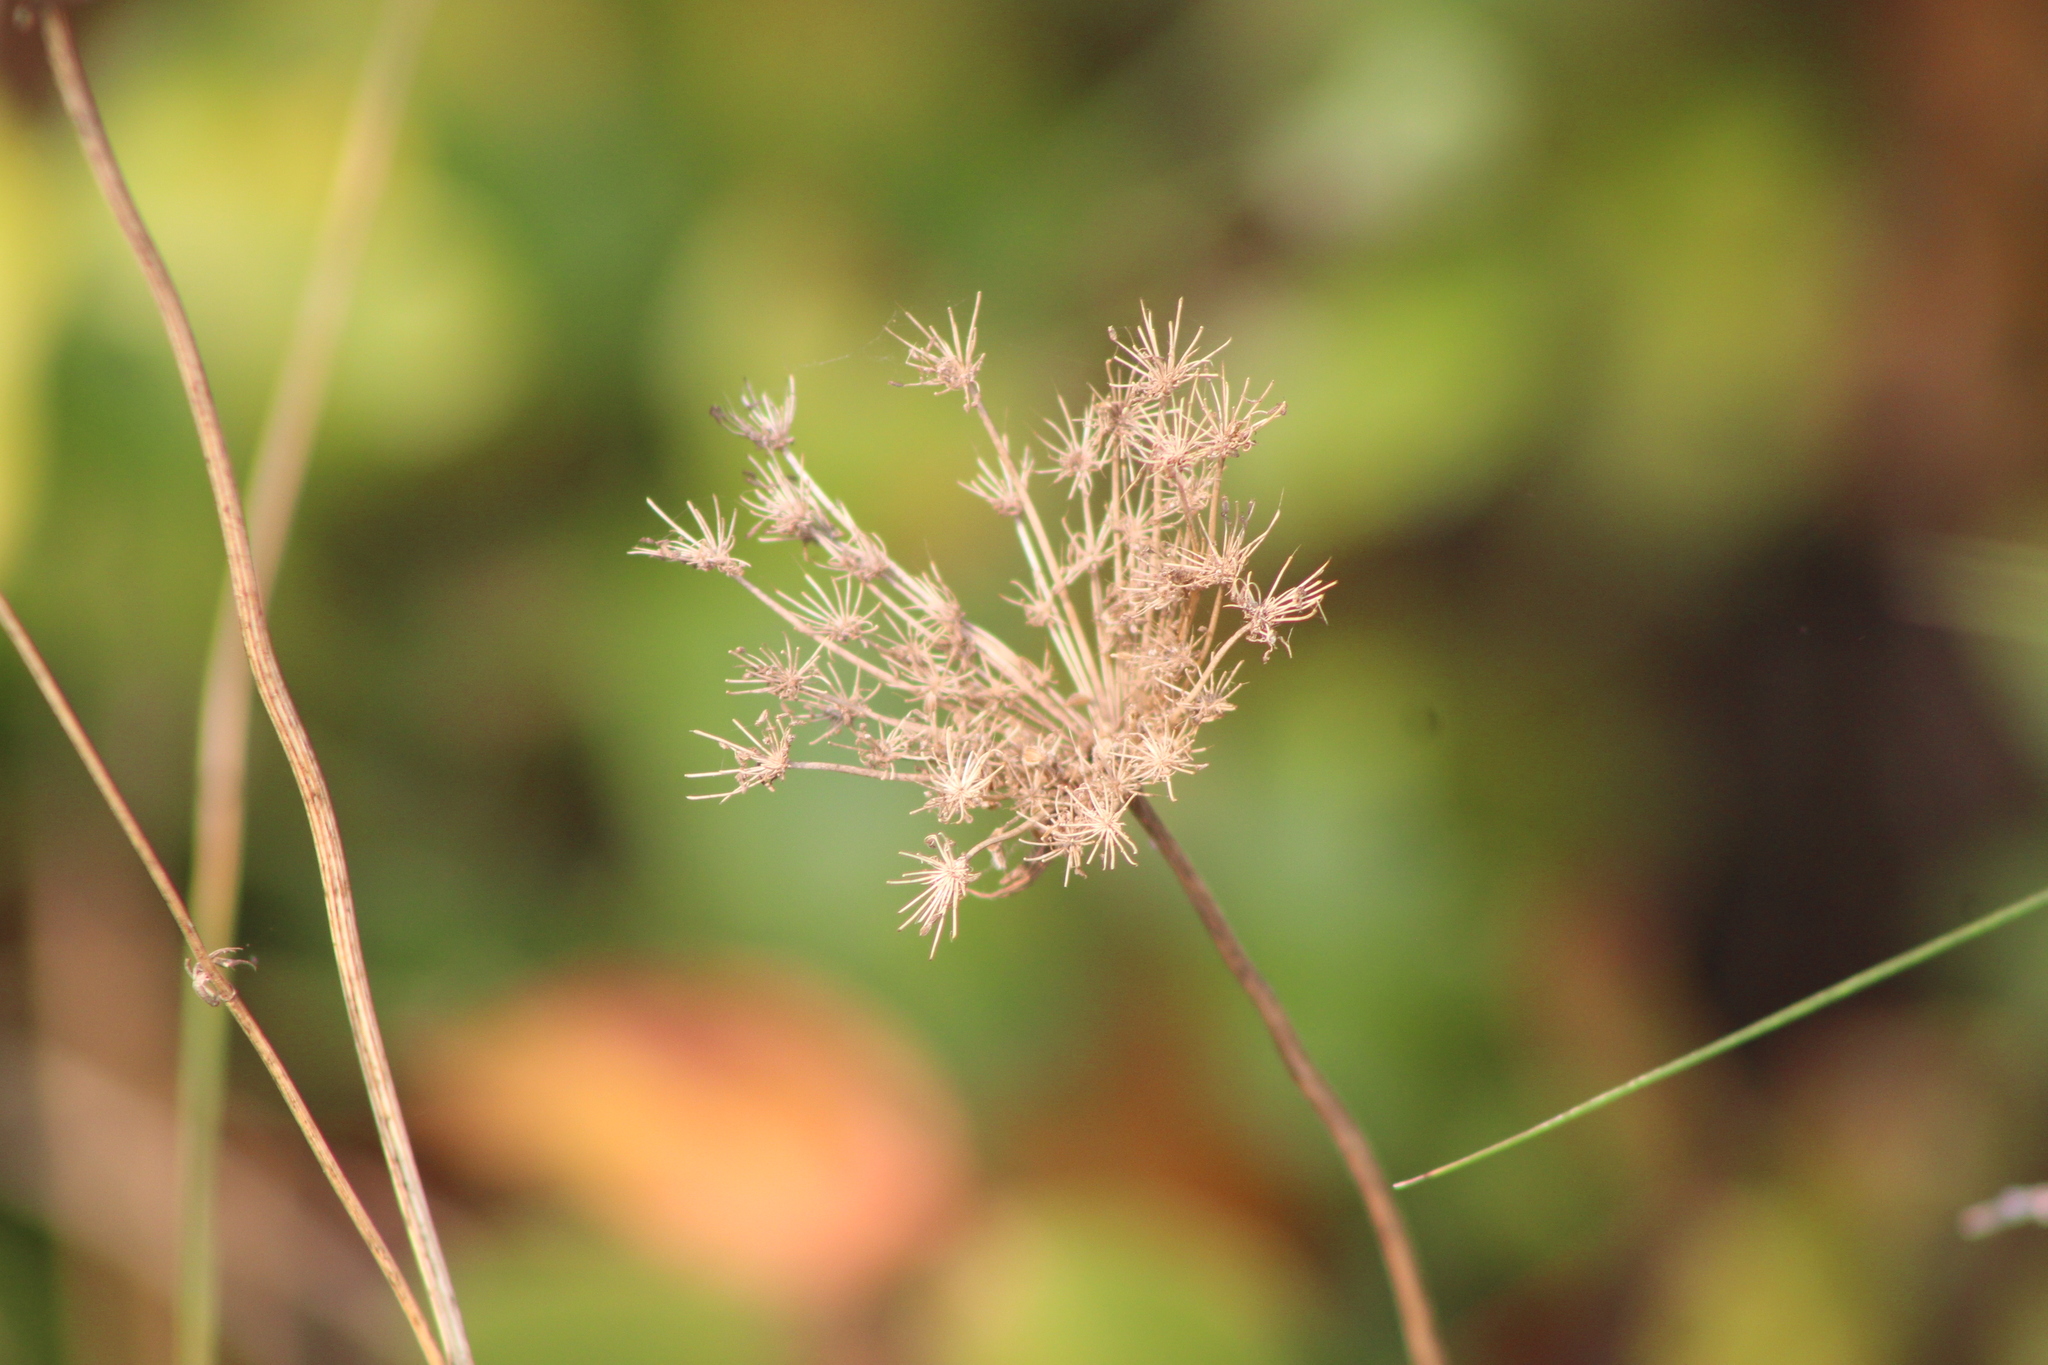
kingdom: Plantae
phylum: Tracheophyta
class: Magnoliopsida
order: Apiales
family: Apiaceae
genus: Daucus
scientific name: Daucus carota
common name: Wild carrot
